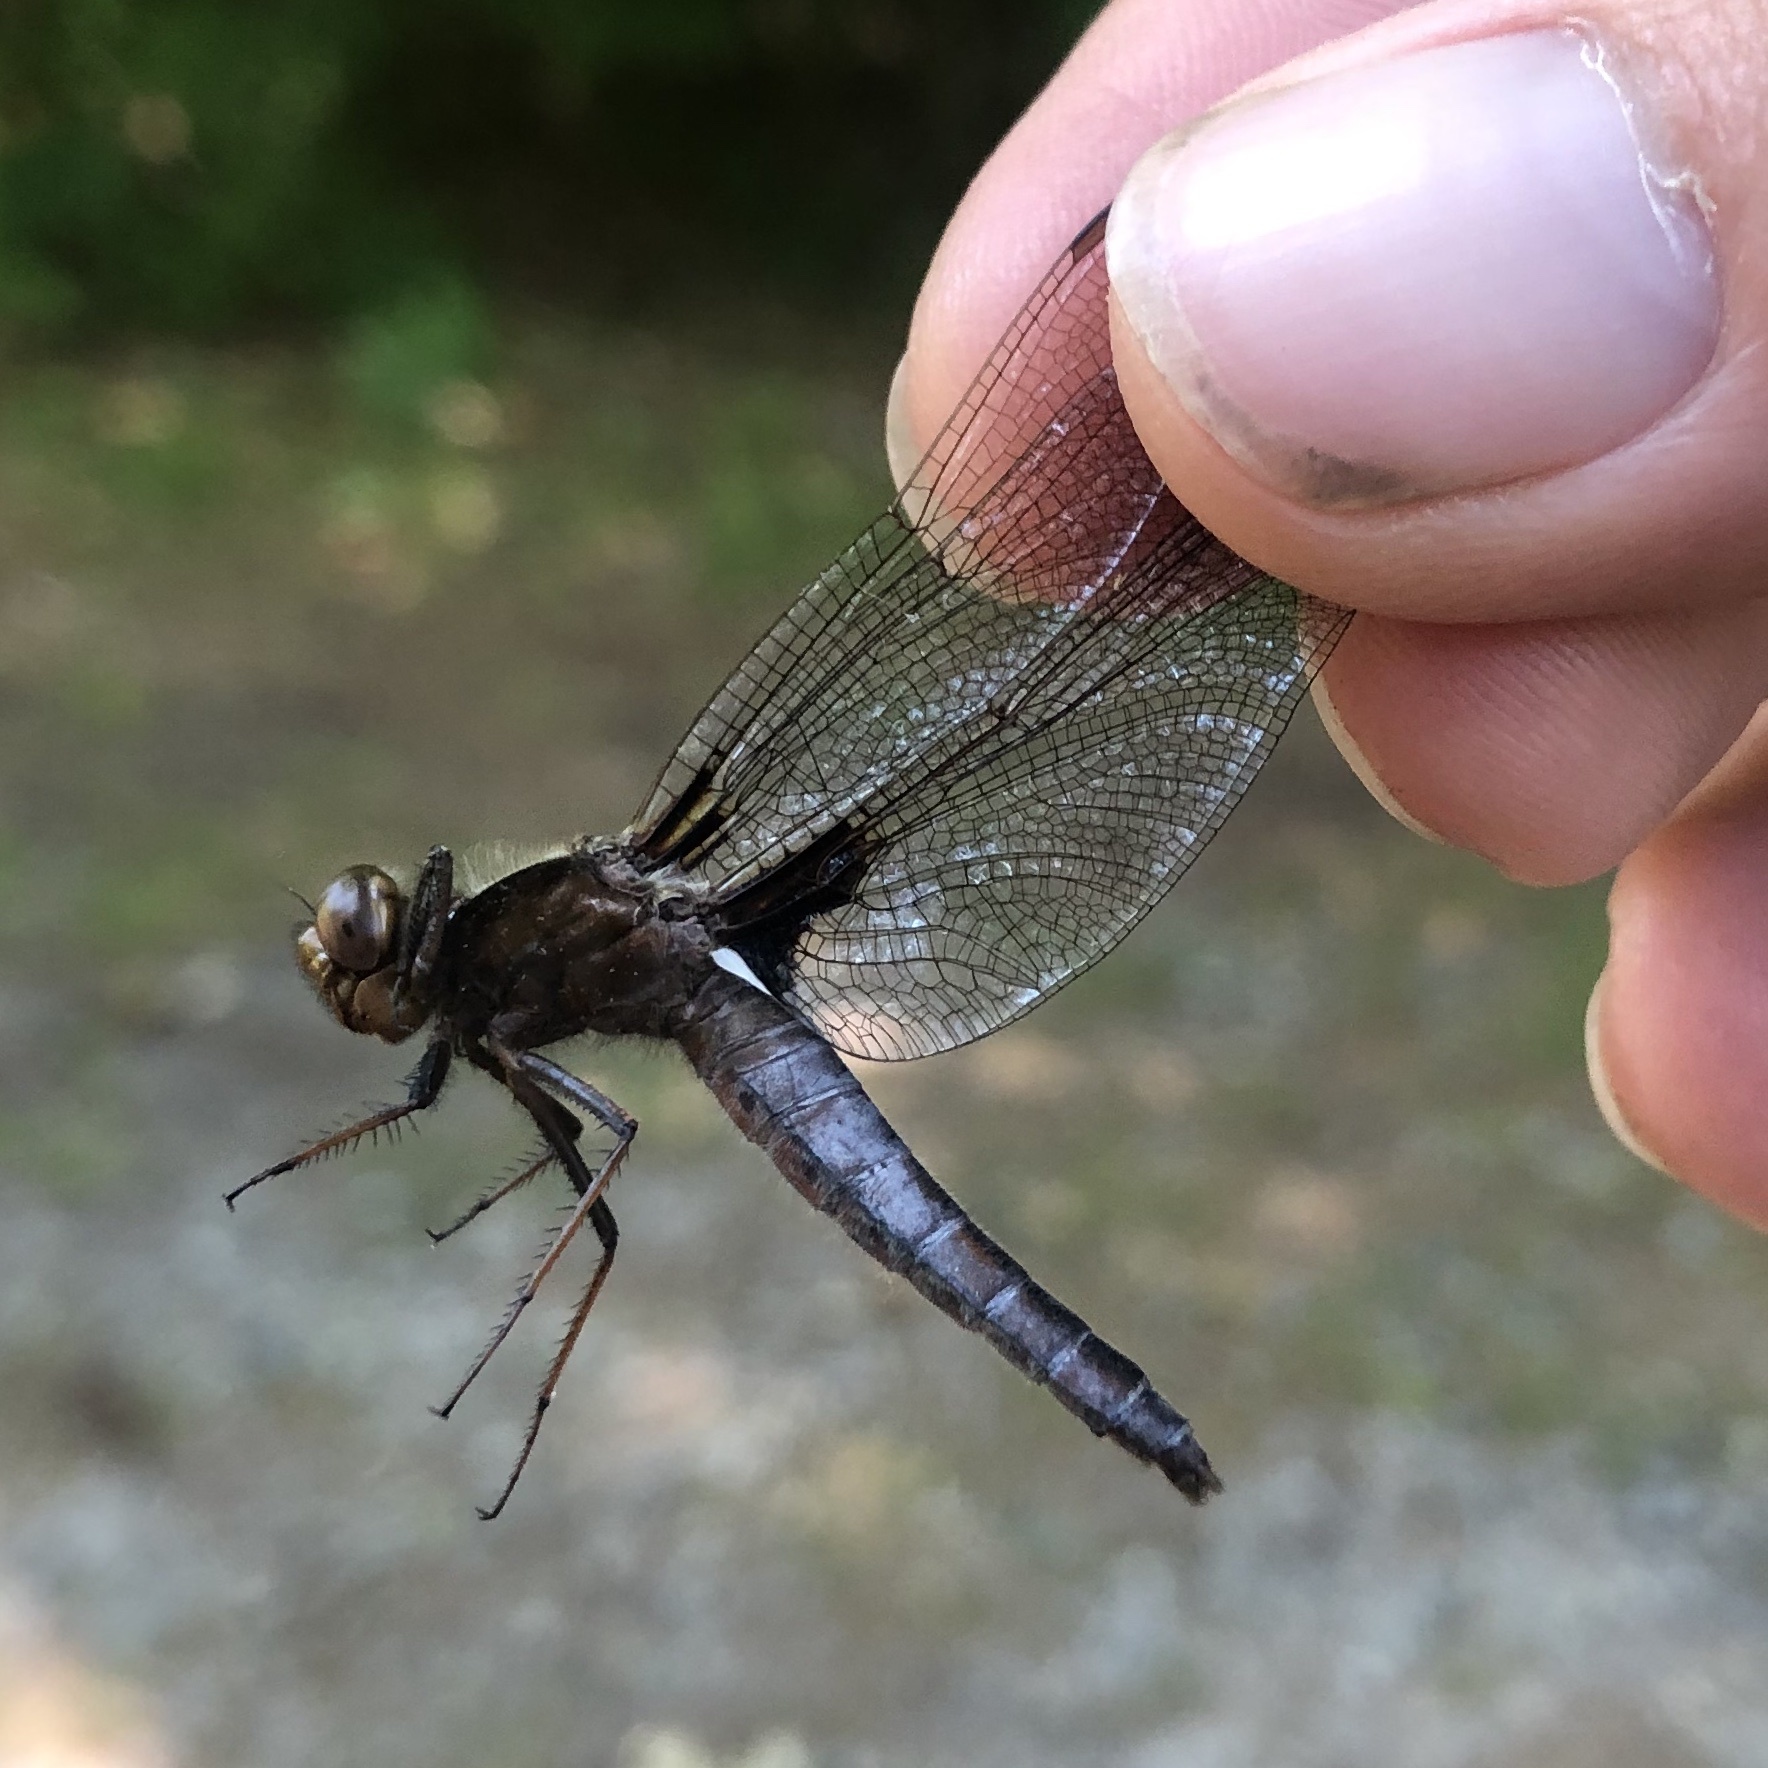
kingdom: Animalia
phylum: Arthropoda
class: Insecta
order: Odonata
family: Libellulidae
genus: Ladona
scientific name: Ladona exusta
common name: Libellule embrasée
